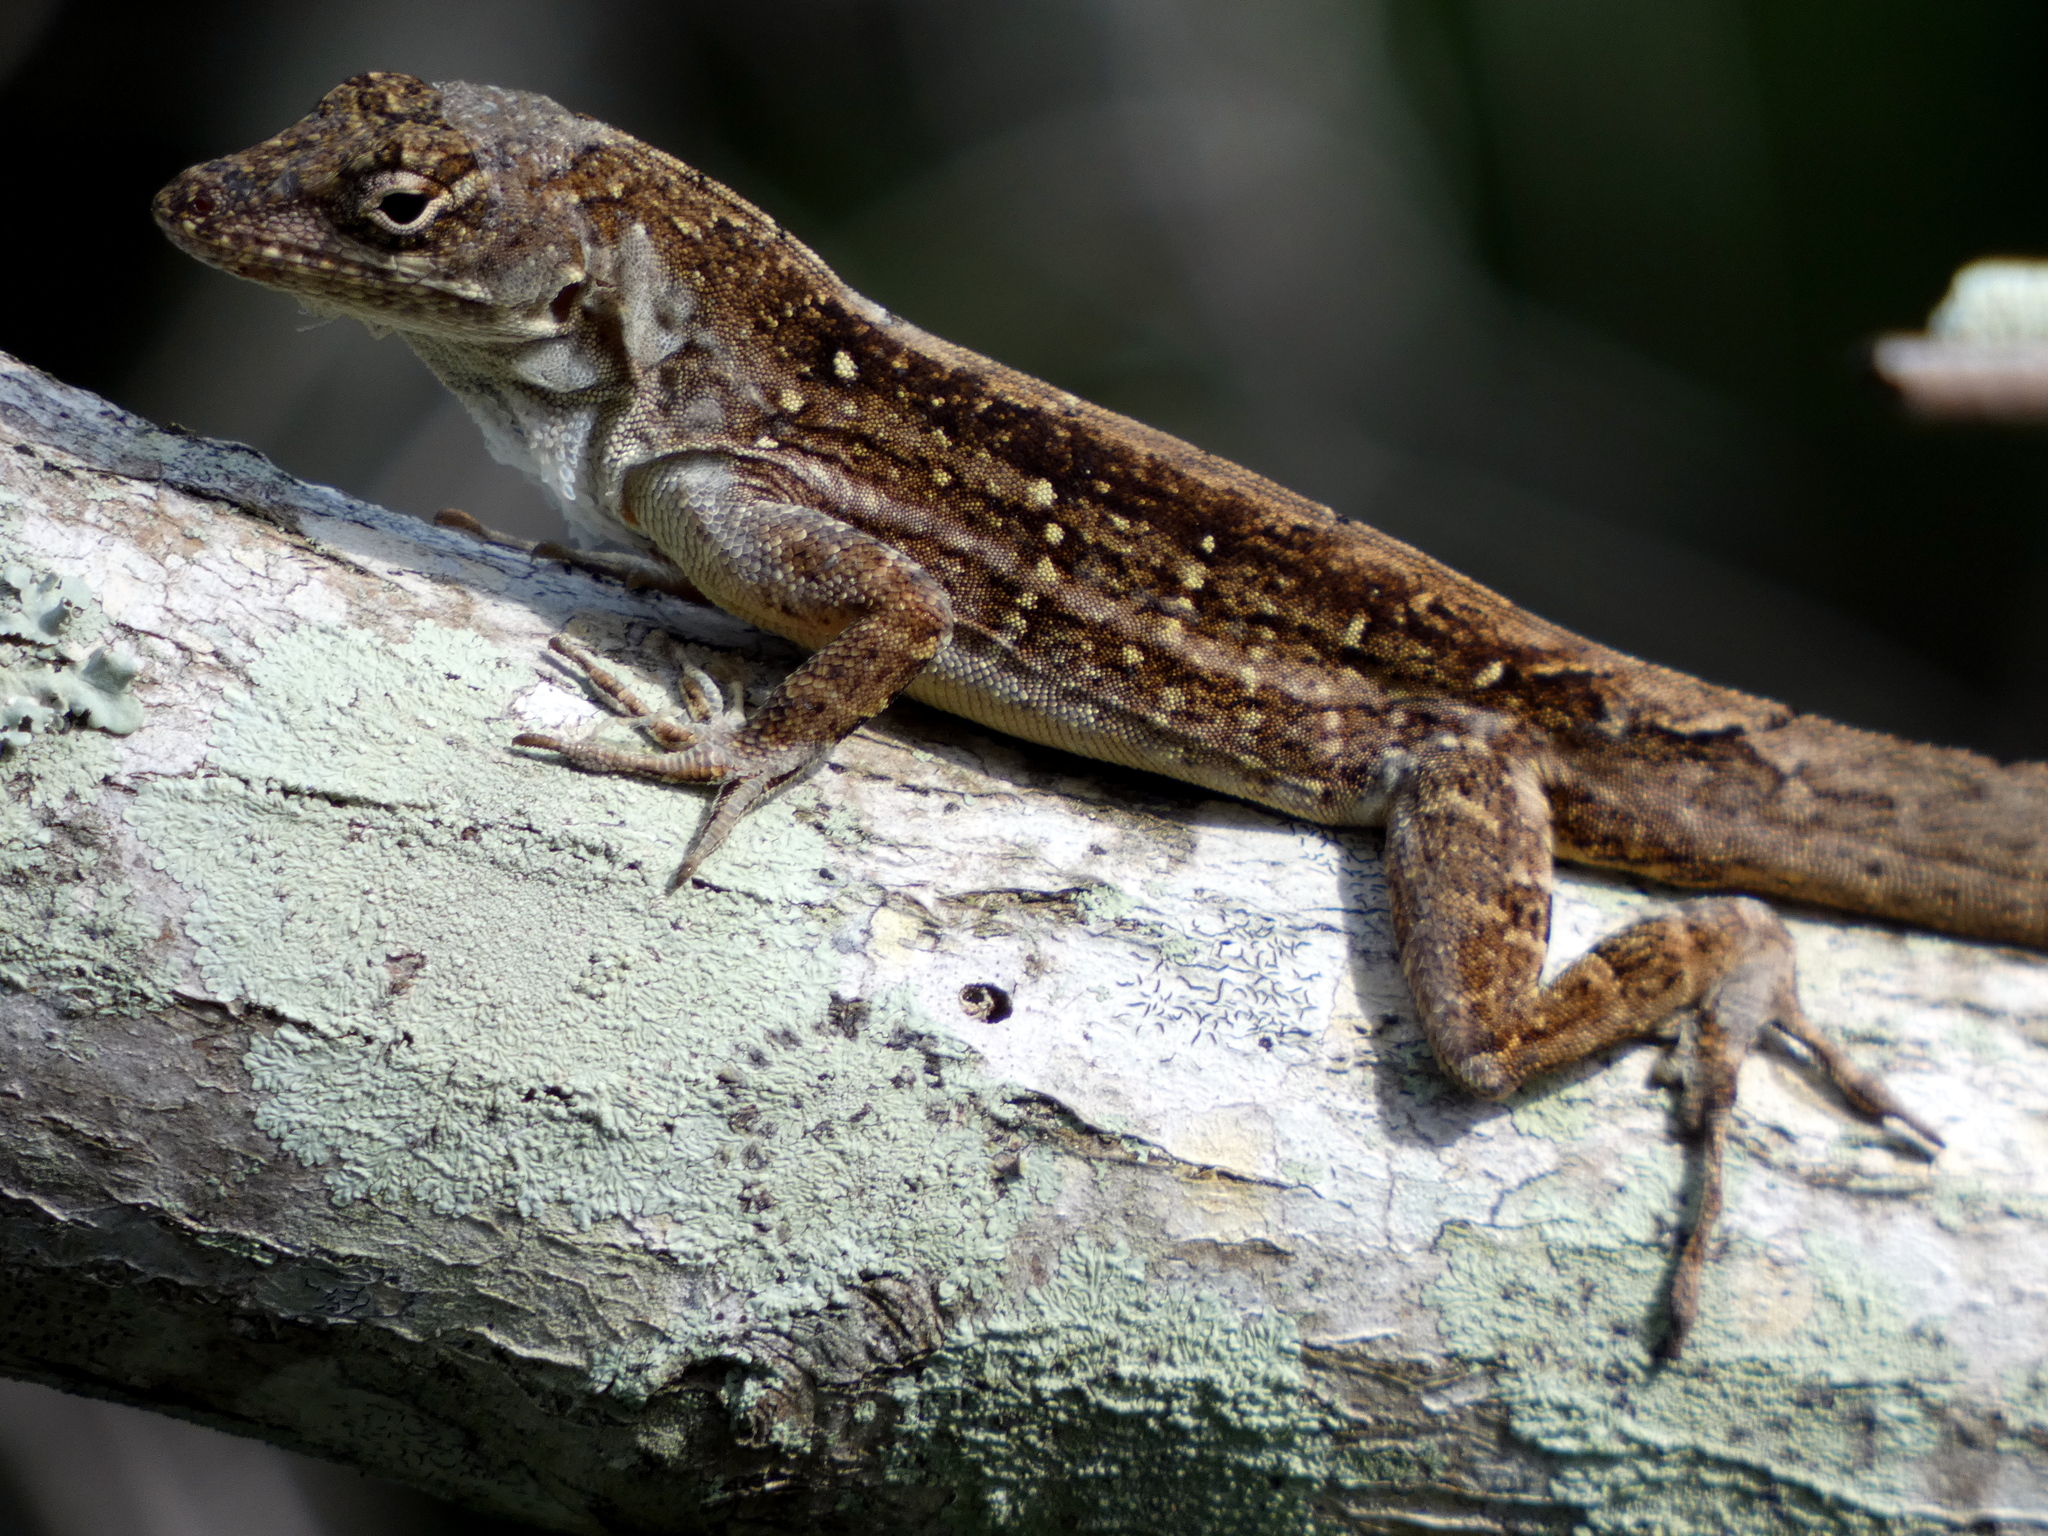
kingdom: Animalia
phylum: Chordata
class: Squamata
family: Dactyloidae
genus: Anolis
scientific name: Anolis sagrei
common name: Brown anole
